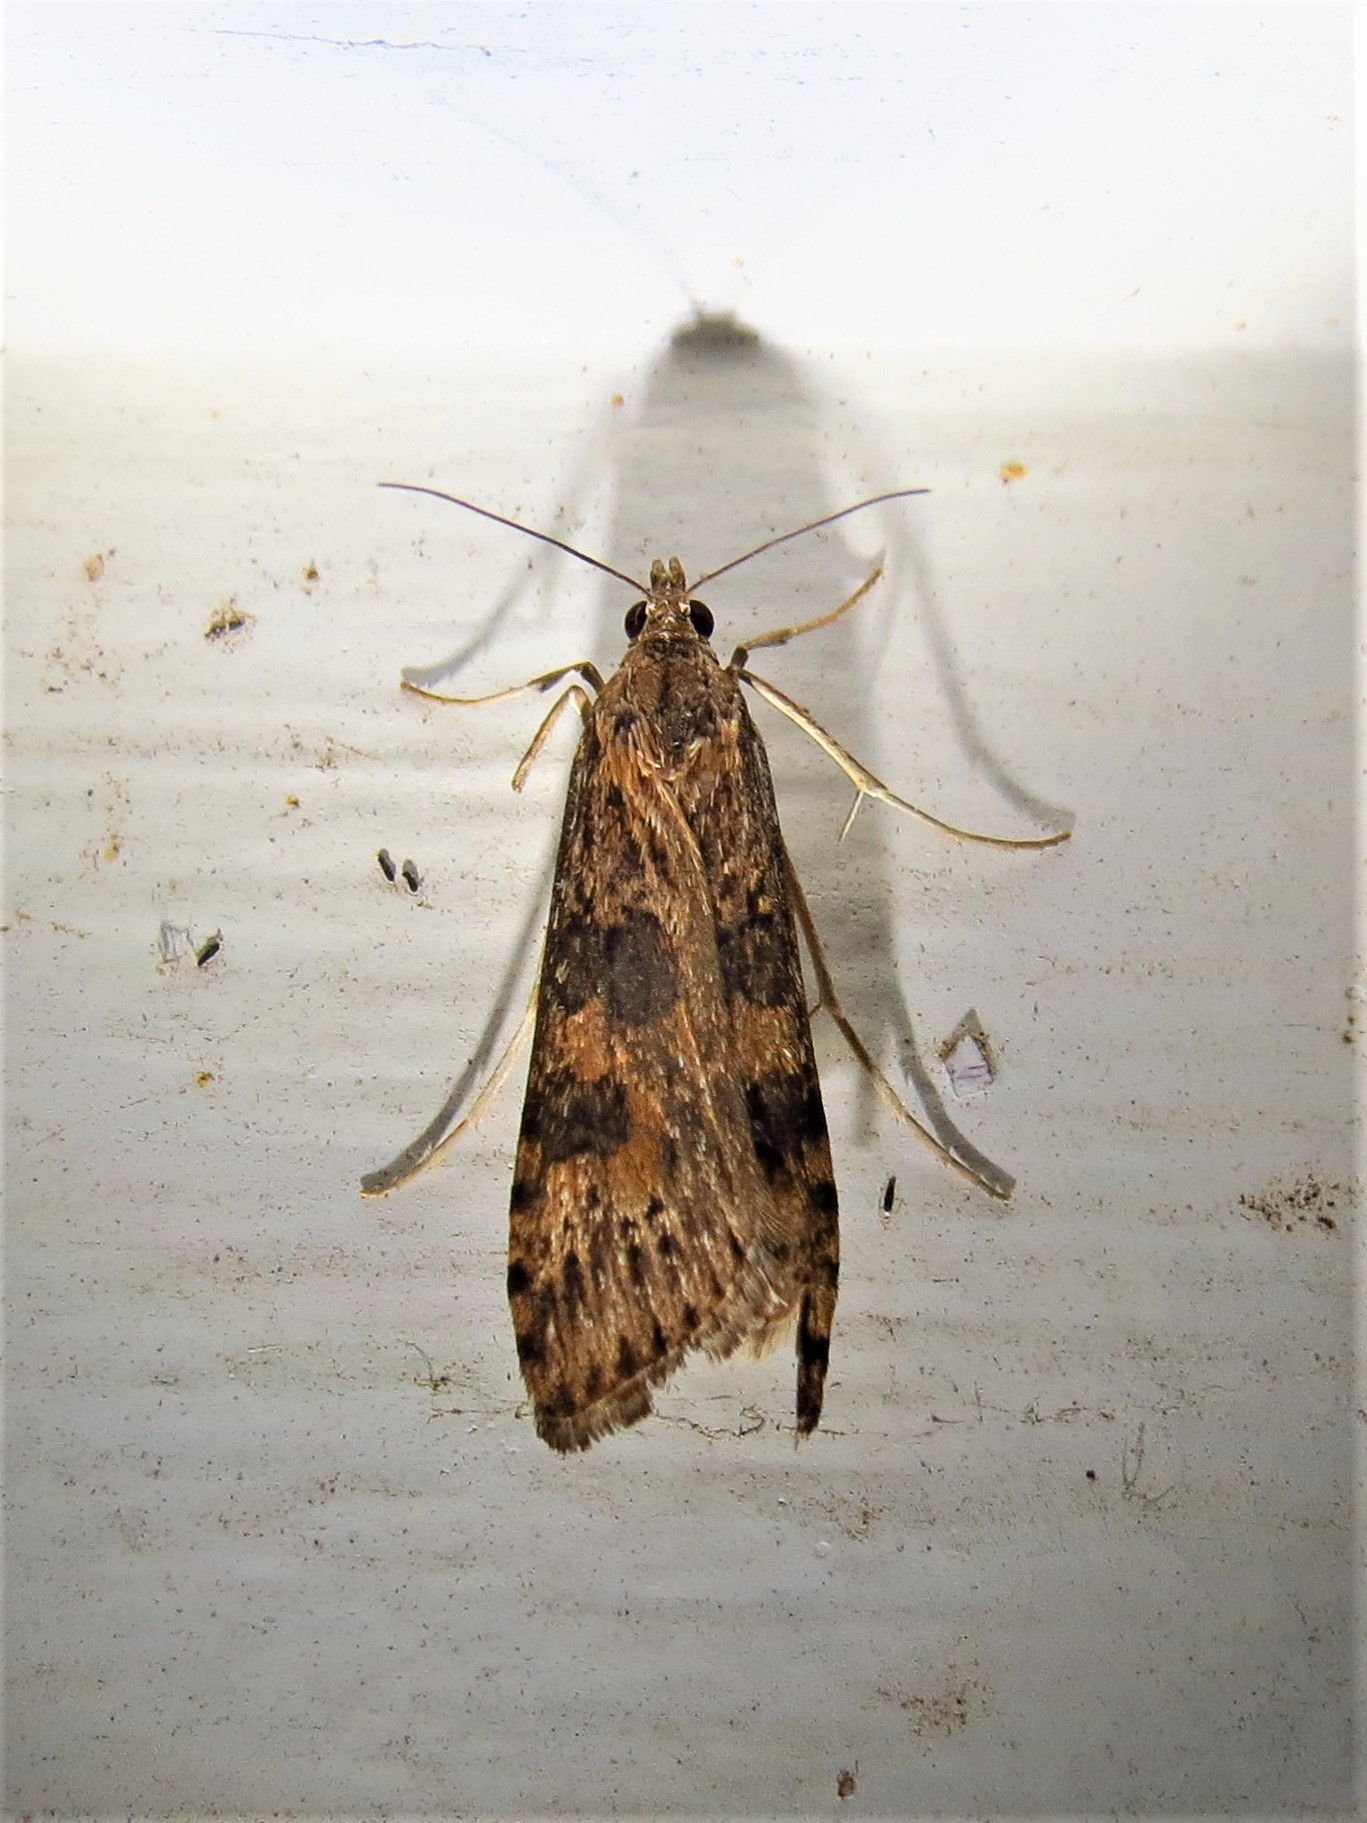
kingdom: Animalia
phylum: Arthropoda
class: Insecta
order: Lepidoptera
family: Crambidae
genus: Nomophila
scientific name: Nomophila nearctica
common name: American rush veneer
